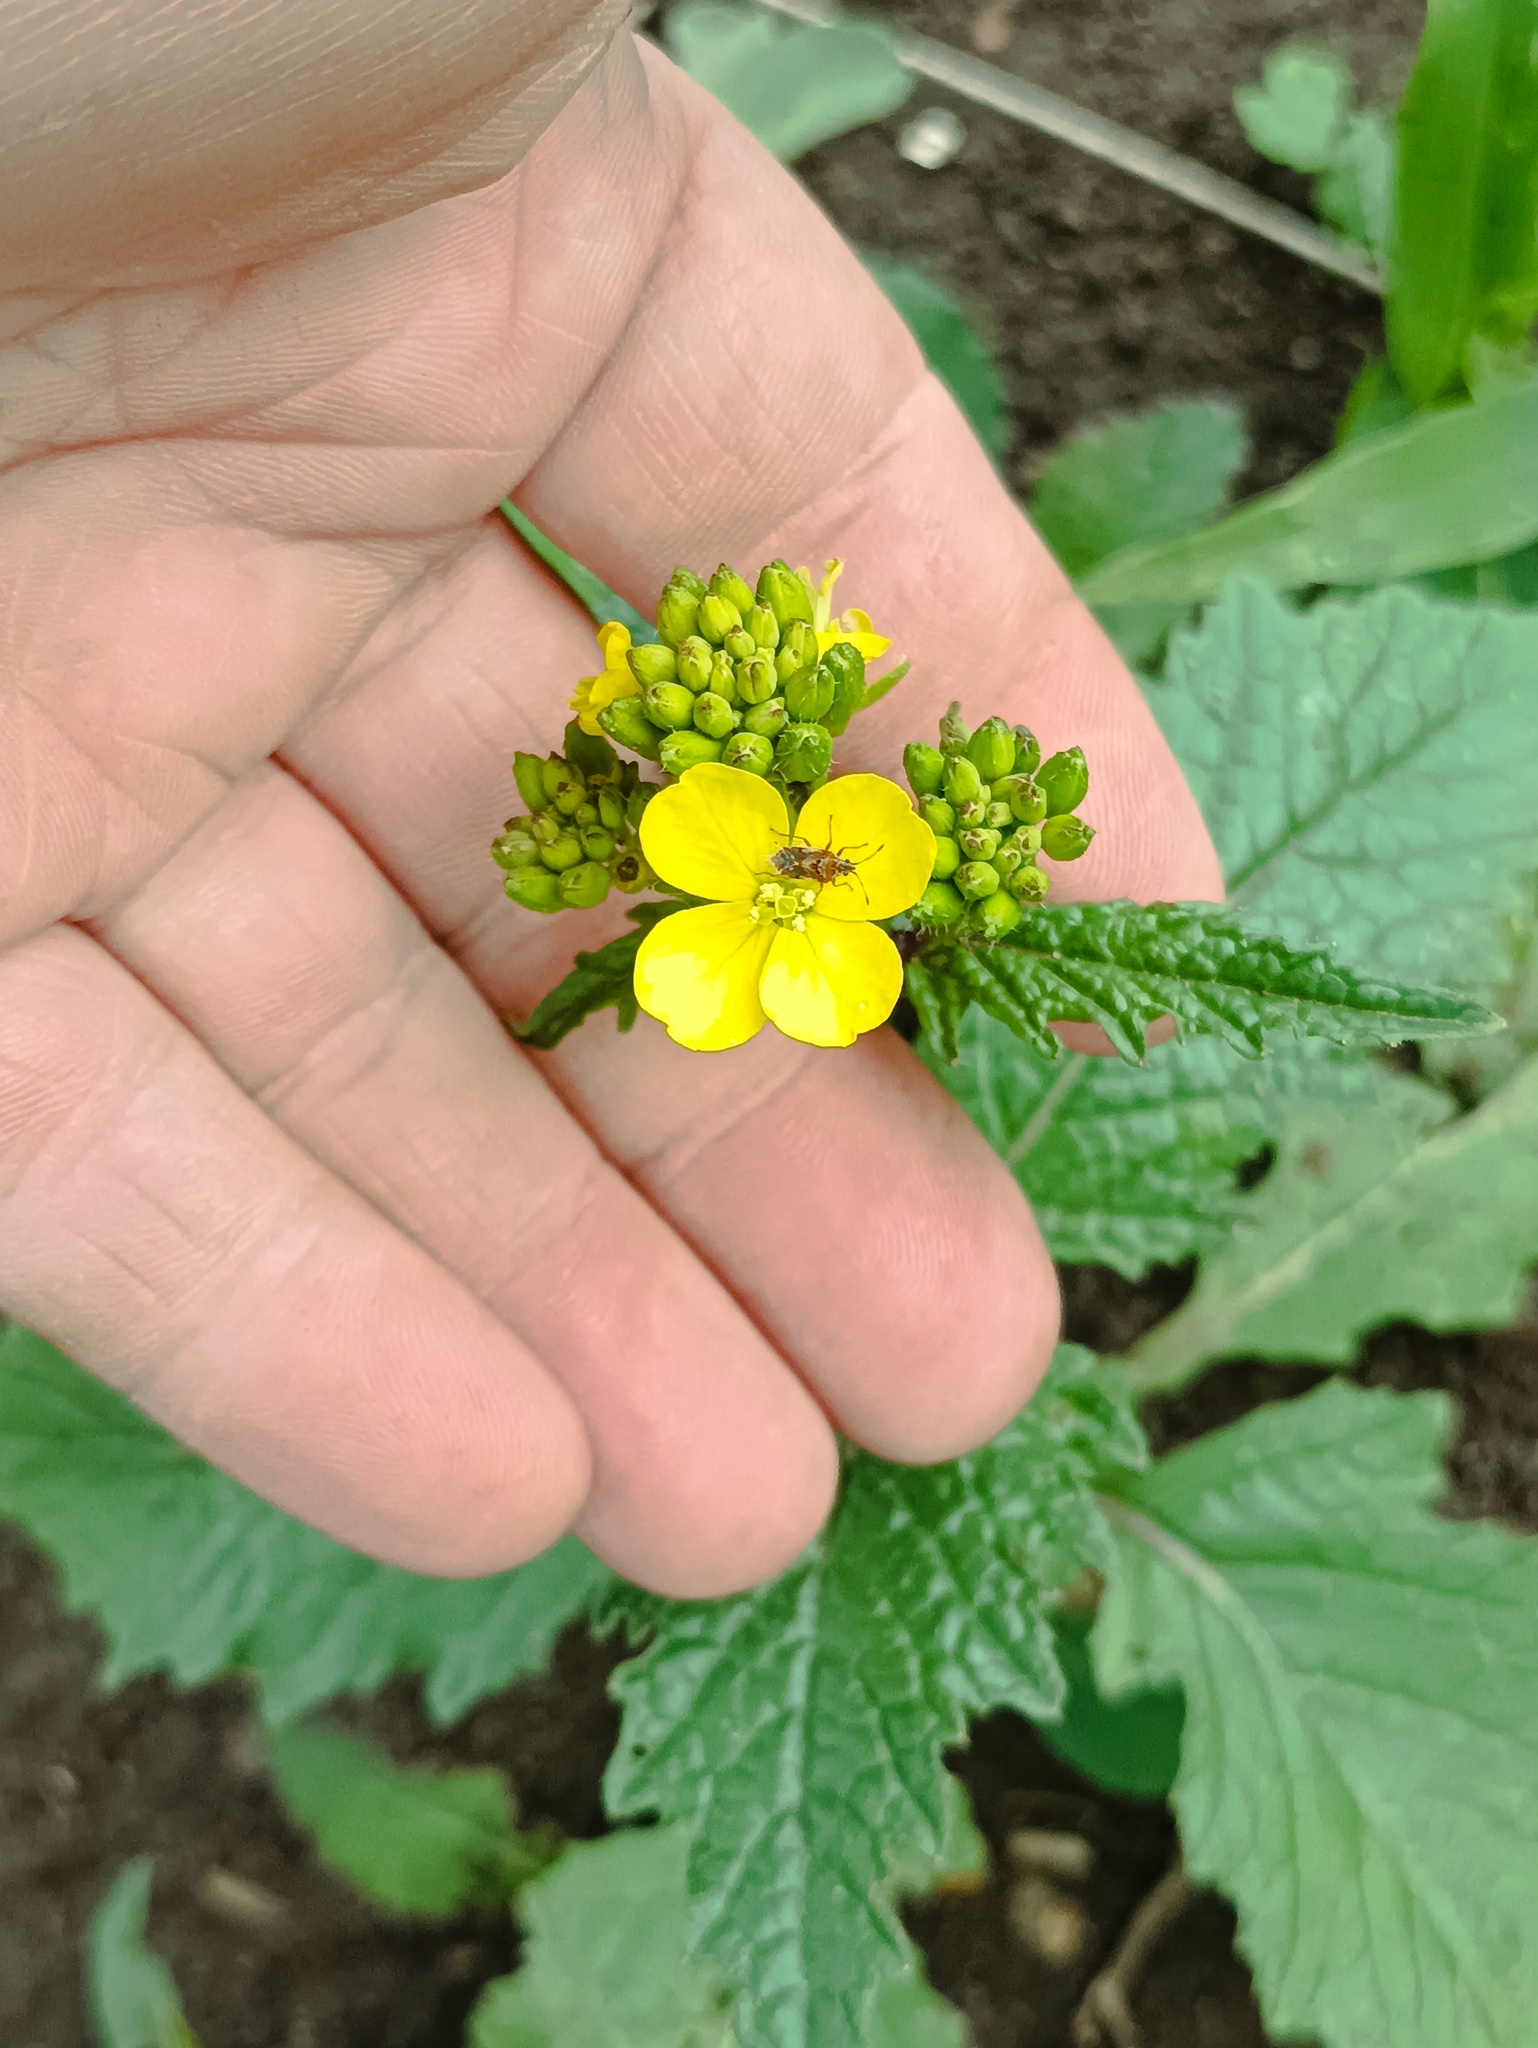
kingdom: Plantae
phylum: Tracheophyta
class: Magnoliopsida
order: Brassicales
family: Brassicaceae
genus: Sinapis
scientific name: Sinapis arvensis
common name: Charlock
